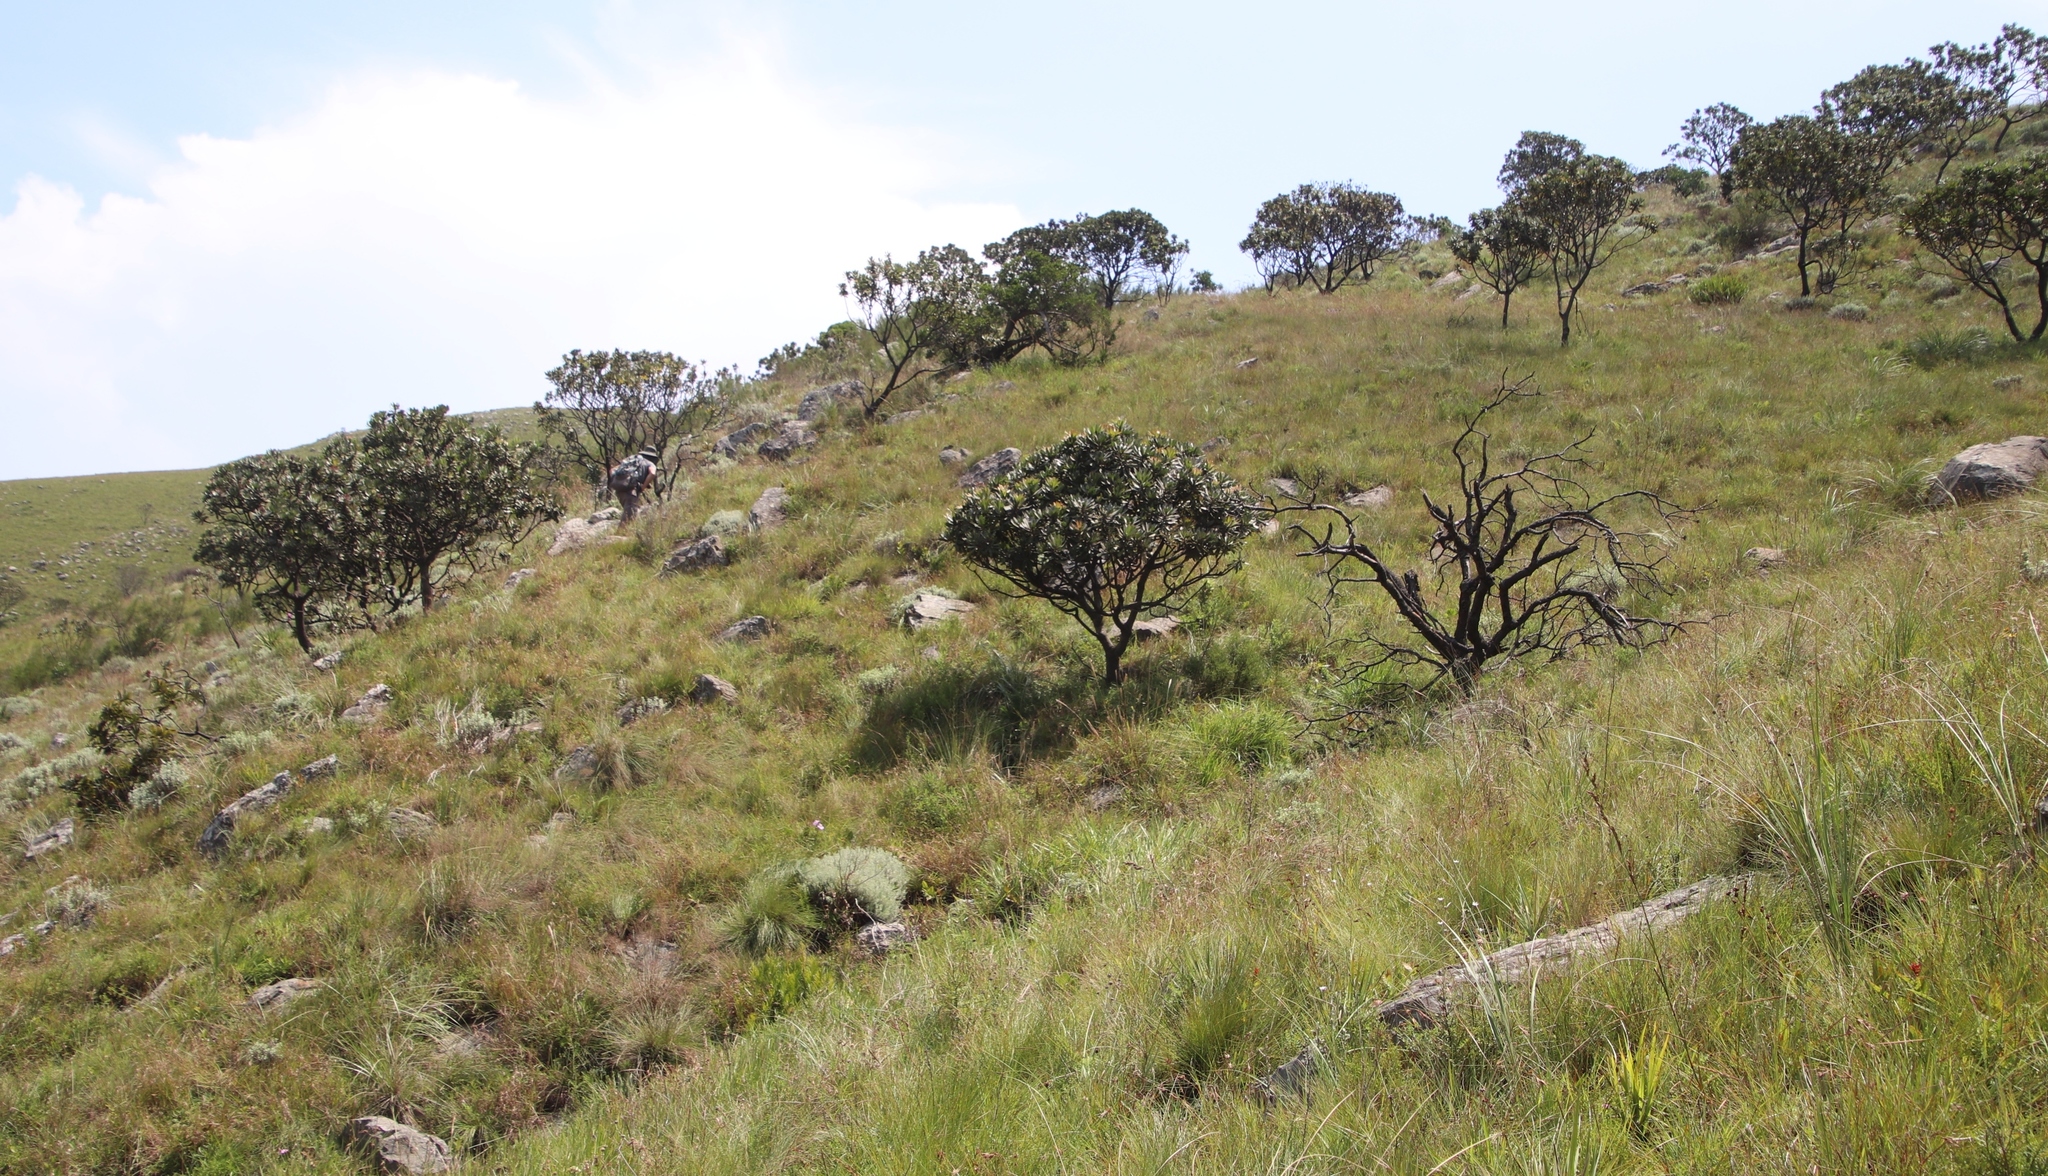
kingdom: Plantae
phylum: Tracheophyta
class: Magnoliopsida
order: Proteales
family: Proteaceae
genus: Protea
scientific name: Protea roupelliae
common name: Silver sugarbush
